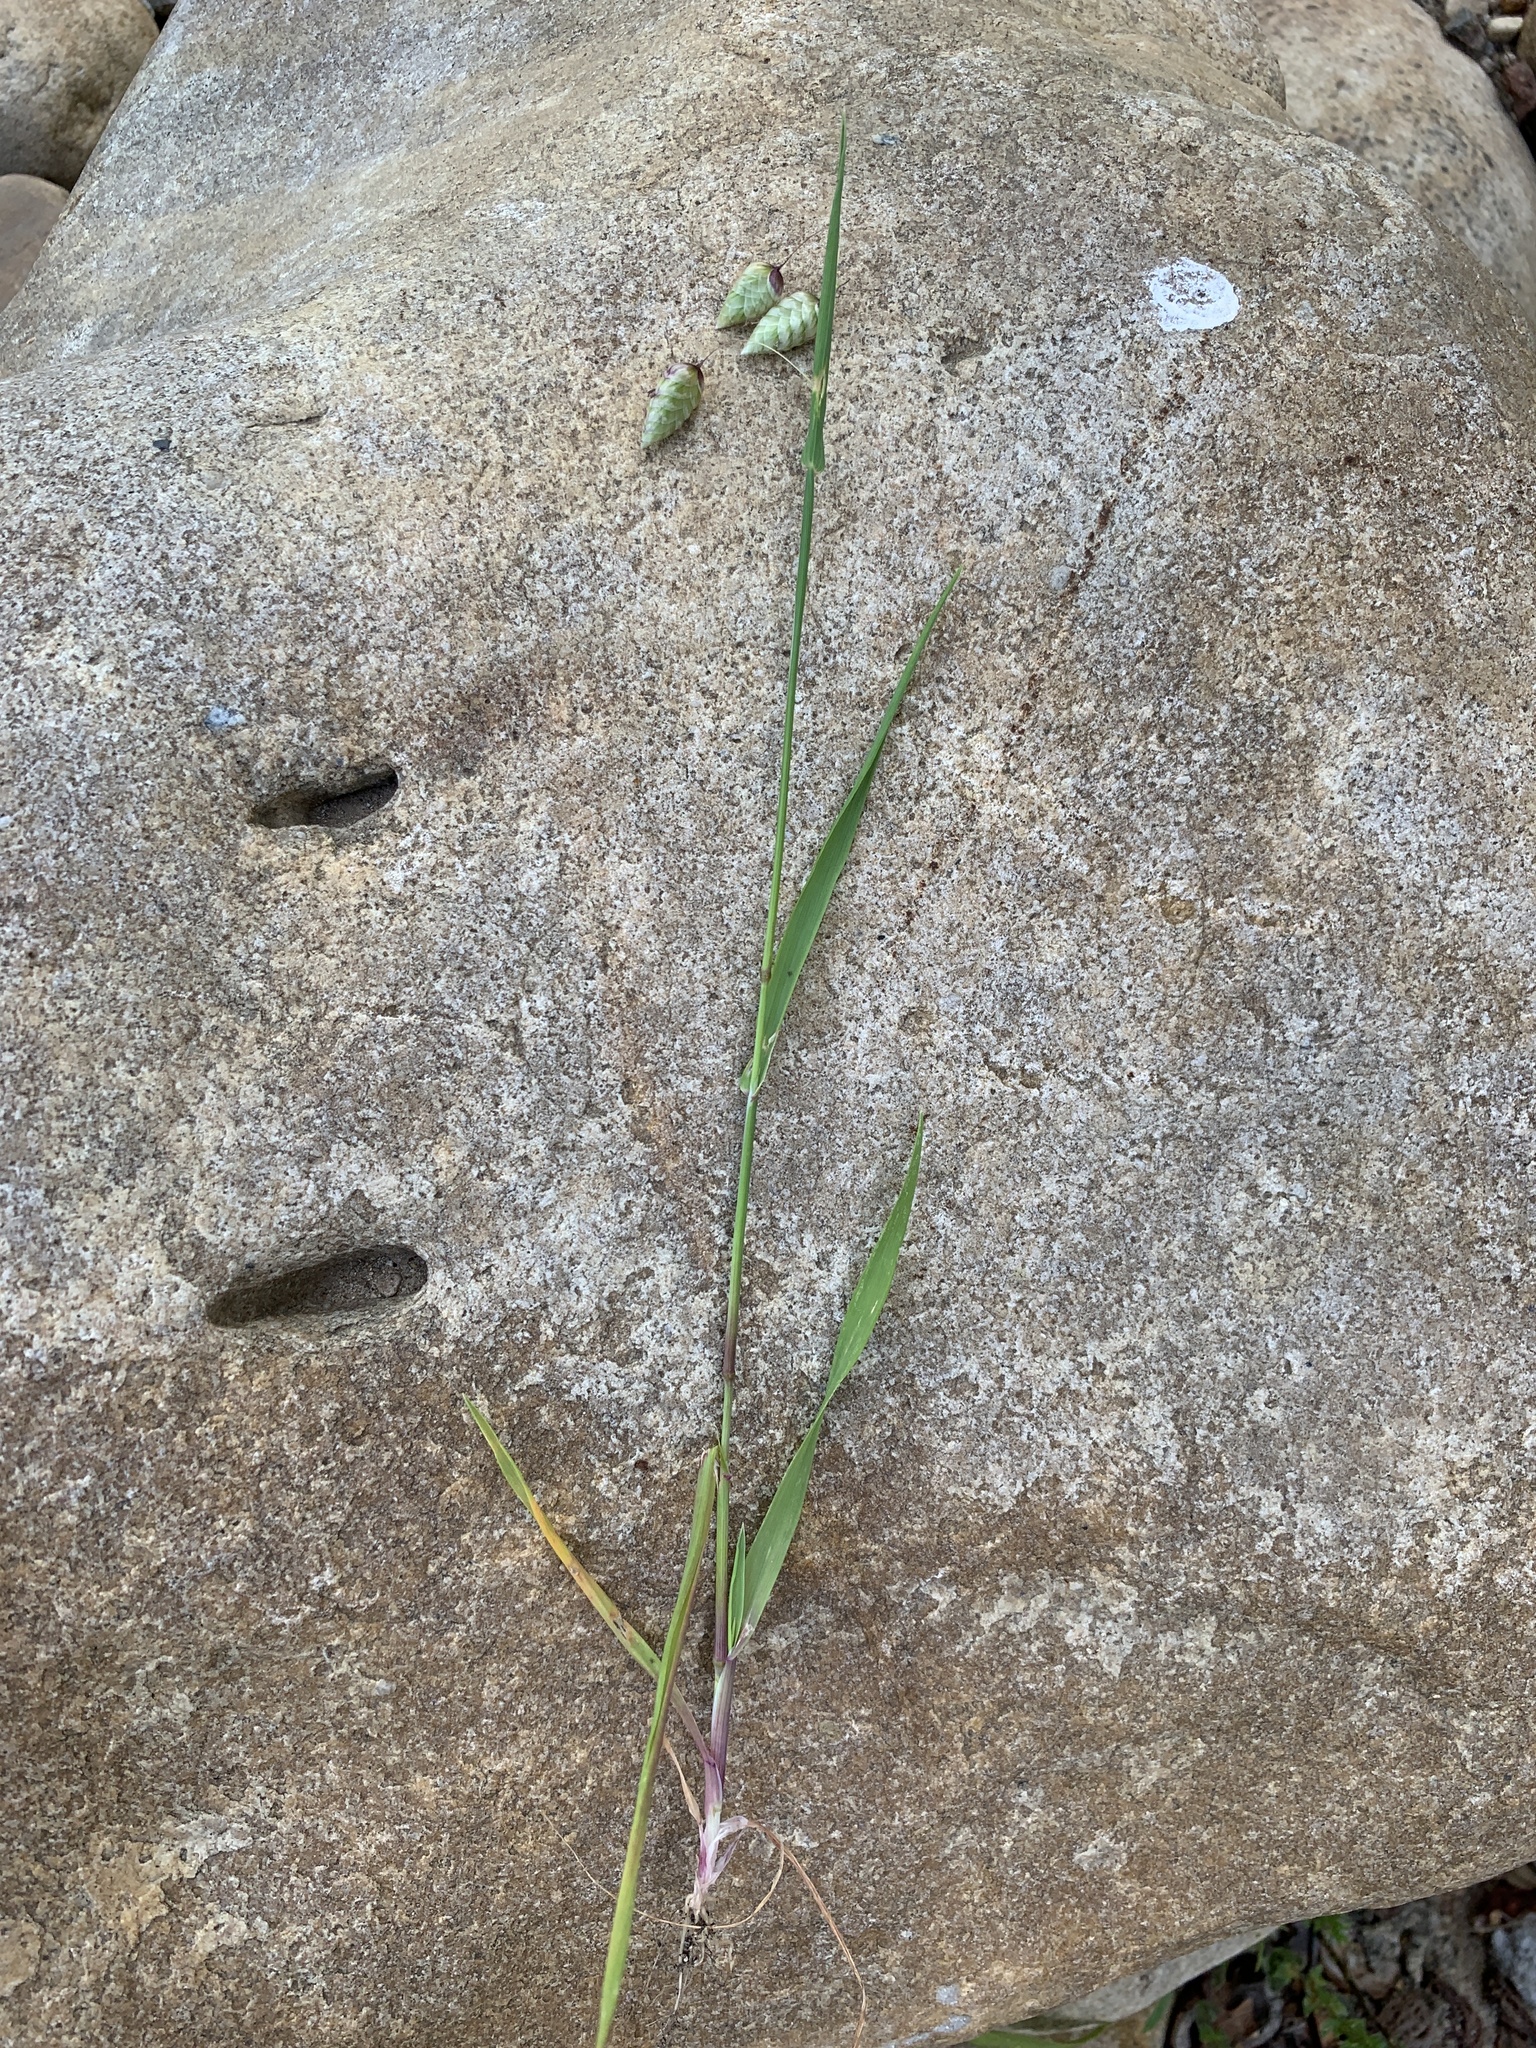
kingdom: Plantae
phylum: Tracheophyta
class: Liliopsida
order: Poales
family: Poaceae
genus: Briza
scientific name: Briza maxima
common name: Big quakinggrass
